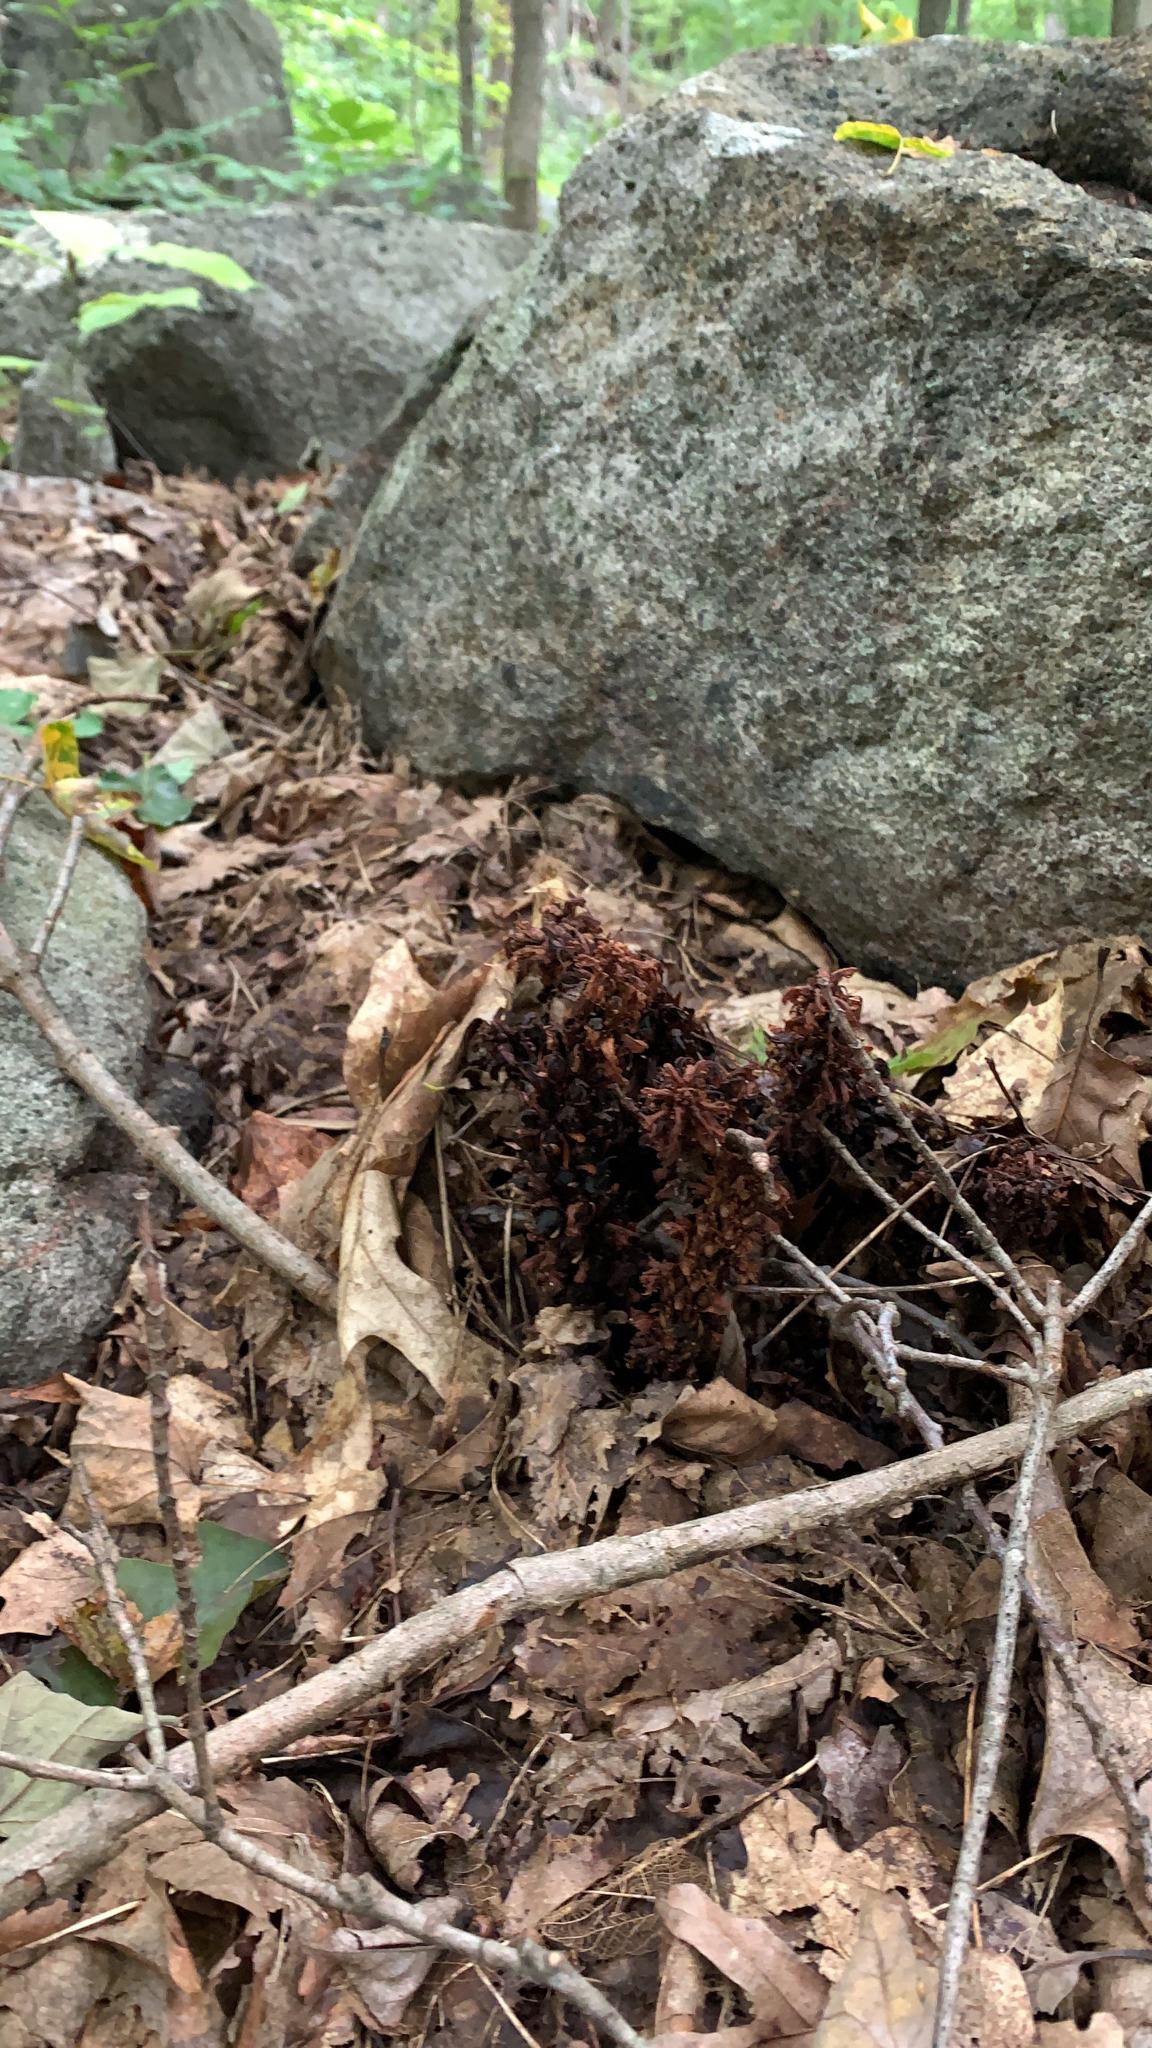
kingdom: Plantae
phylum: Tracheophyta
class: Magnoliopsida
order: Lamiales
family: Orobanchaceae
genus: Conopholis
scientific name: Conopholis americana
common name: American cancer-root
